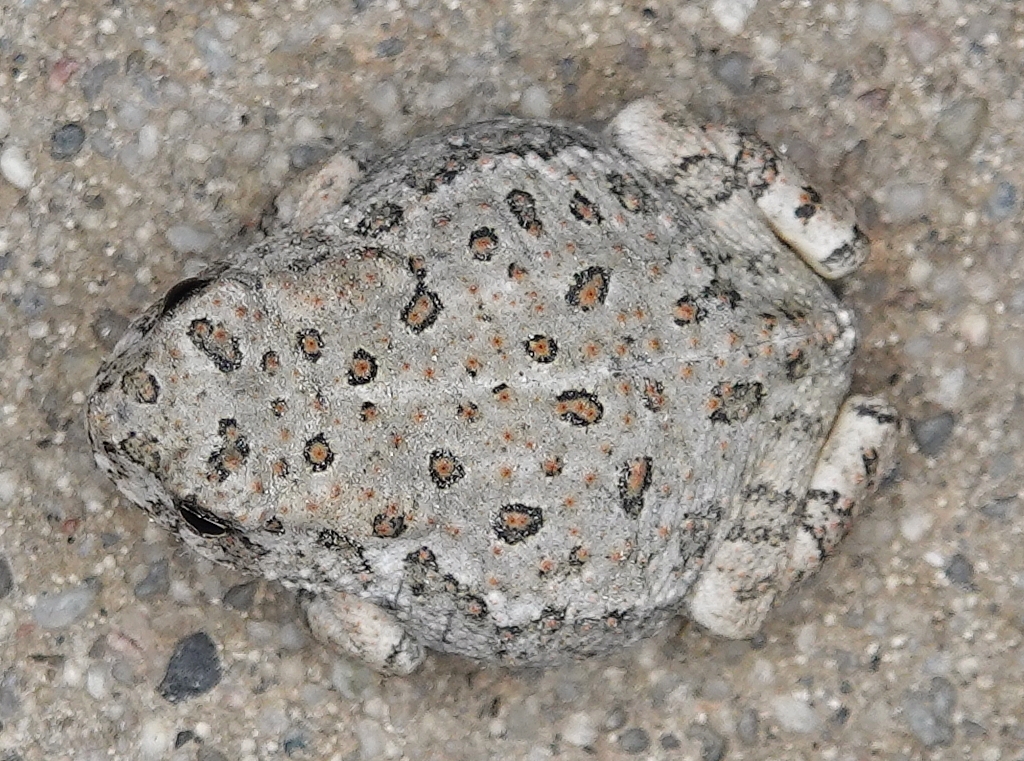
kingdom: Animalia
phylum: Chordata
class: Amphibia
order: Anura
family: Bufonidae
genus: Anaxyrus
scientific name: Anaxyrus woodhousii
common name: Woodhouse's toad
